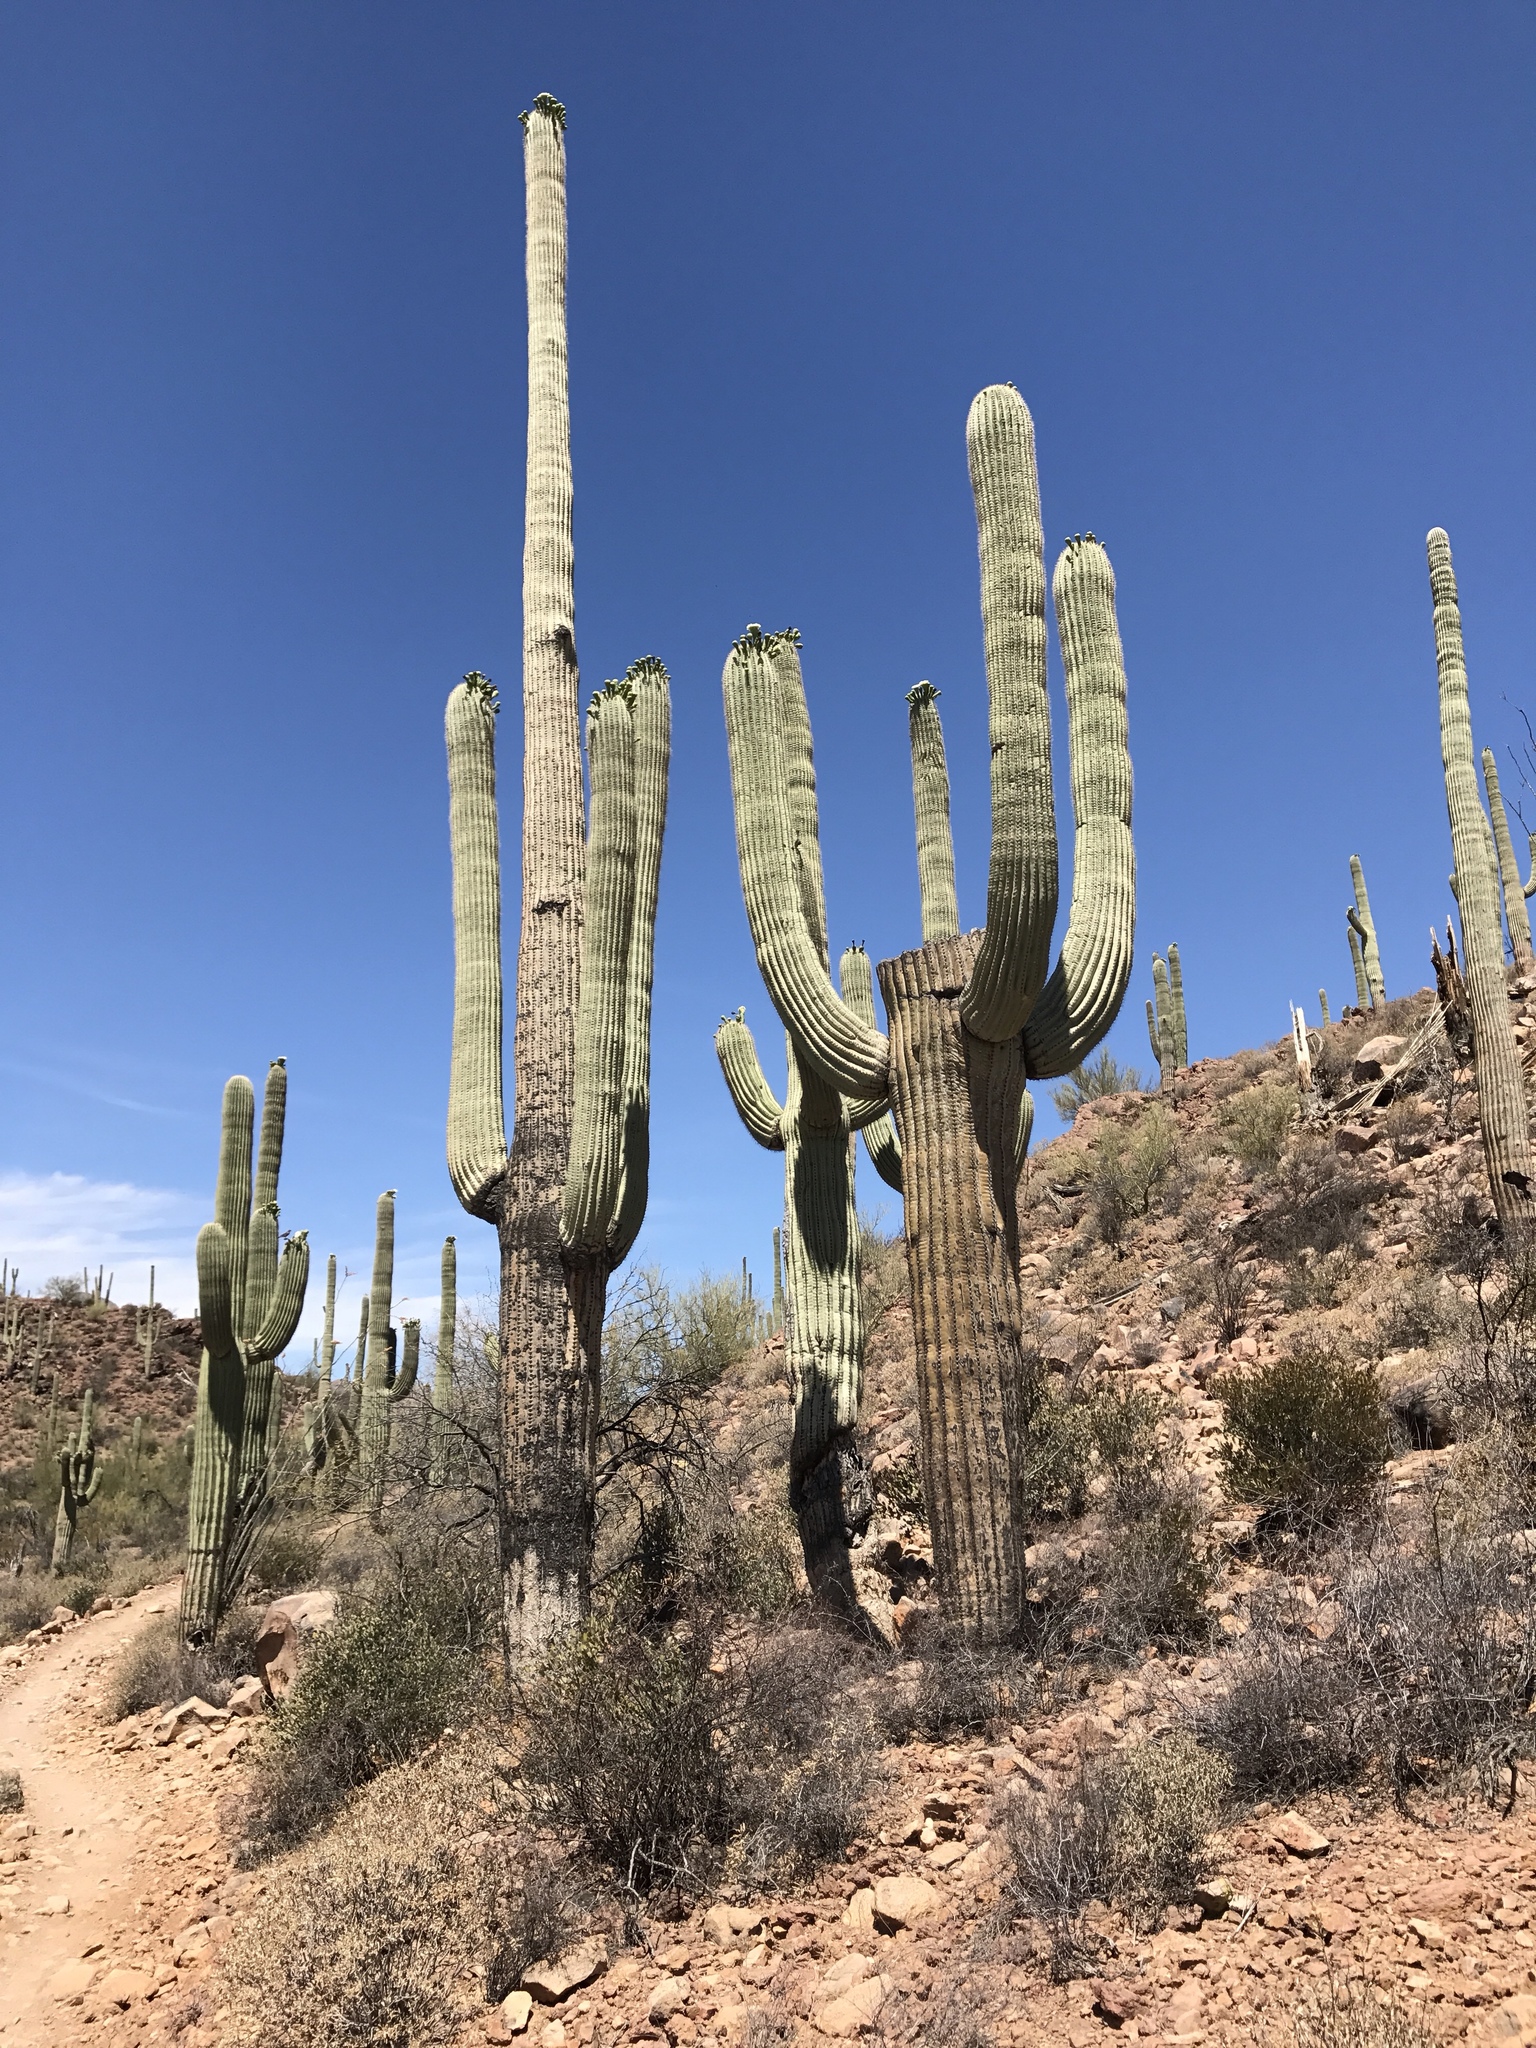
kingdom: Plantae
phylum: Tracheophyta
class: Magnoliopsida
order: Caryophyllales
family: Cactaceae
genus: Carnegiea
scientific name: Carnegiea gigantea
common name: Saguaro
